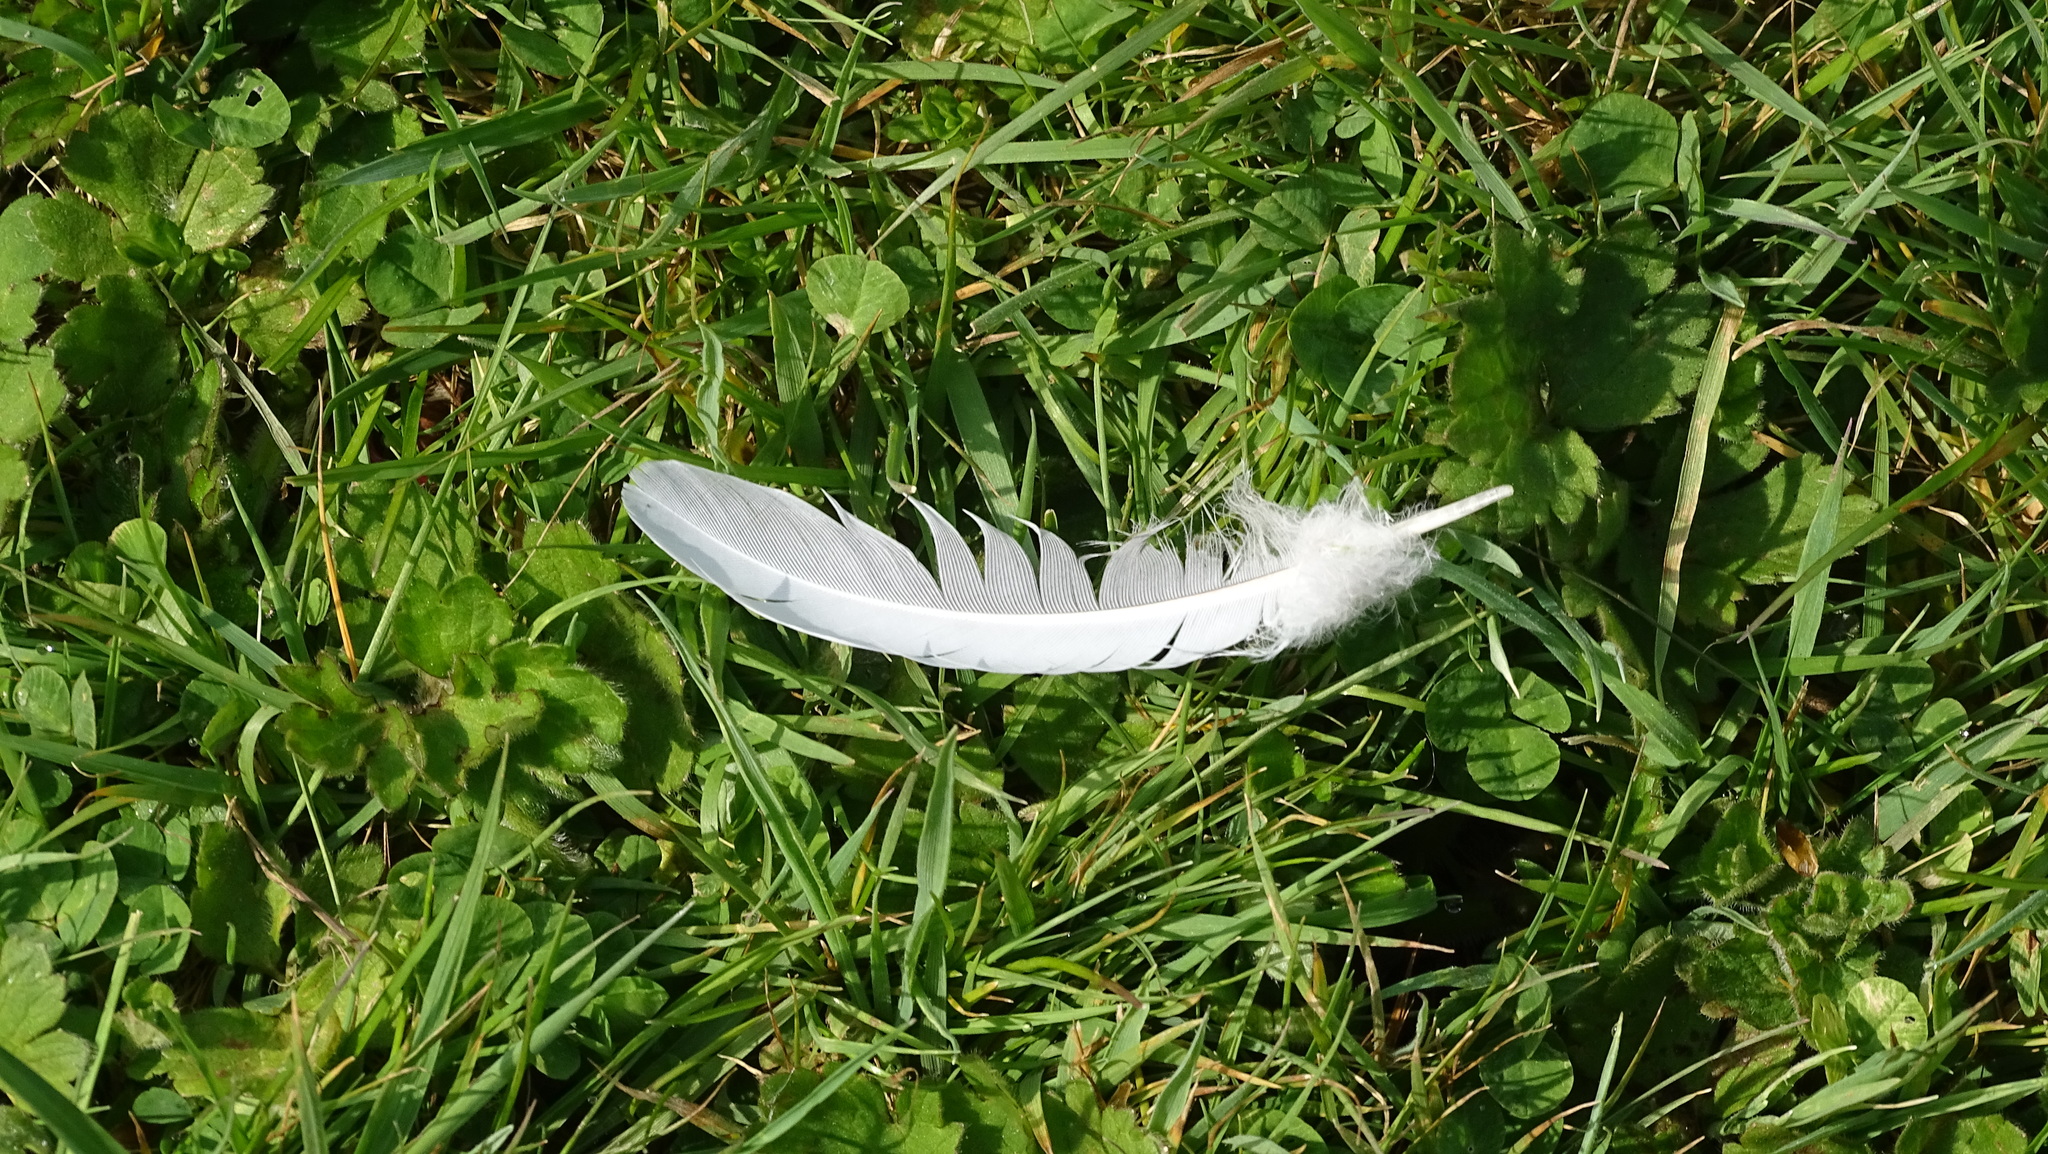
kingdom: Animalia
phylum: Chordata
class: Aves
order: Columbiformes
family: Columbidae
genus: Columba
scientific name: Columba palumbus
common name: Common wood pigeon
